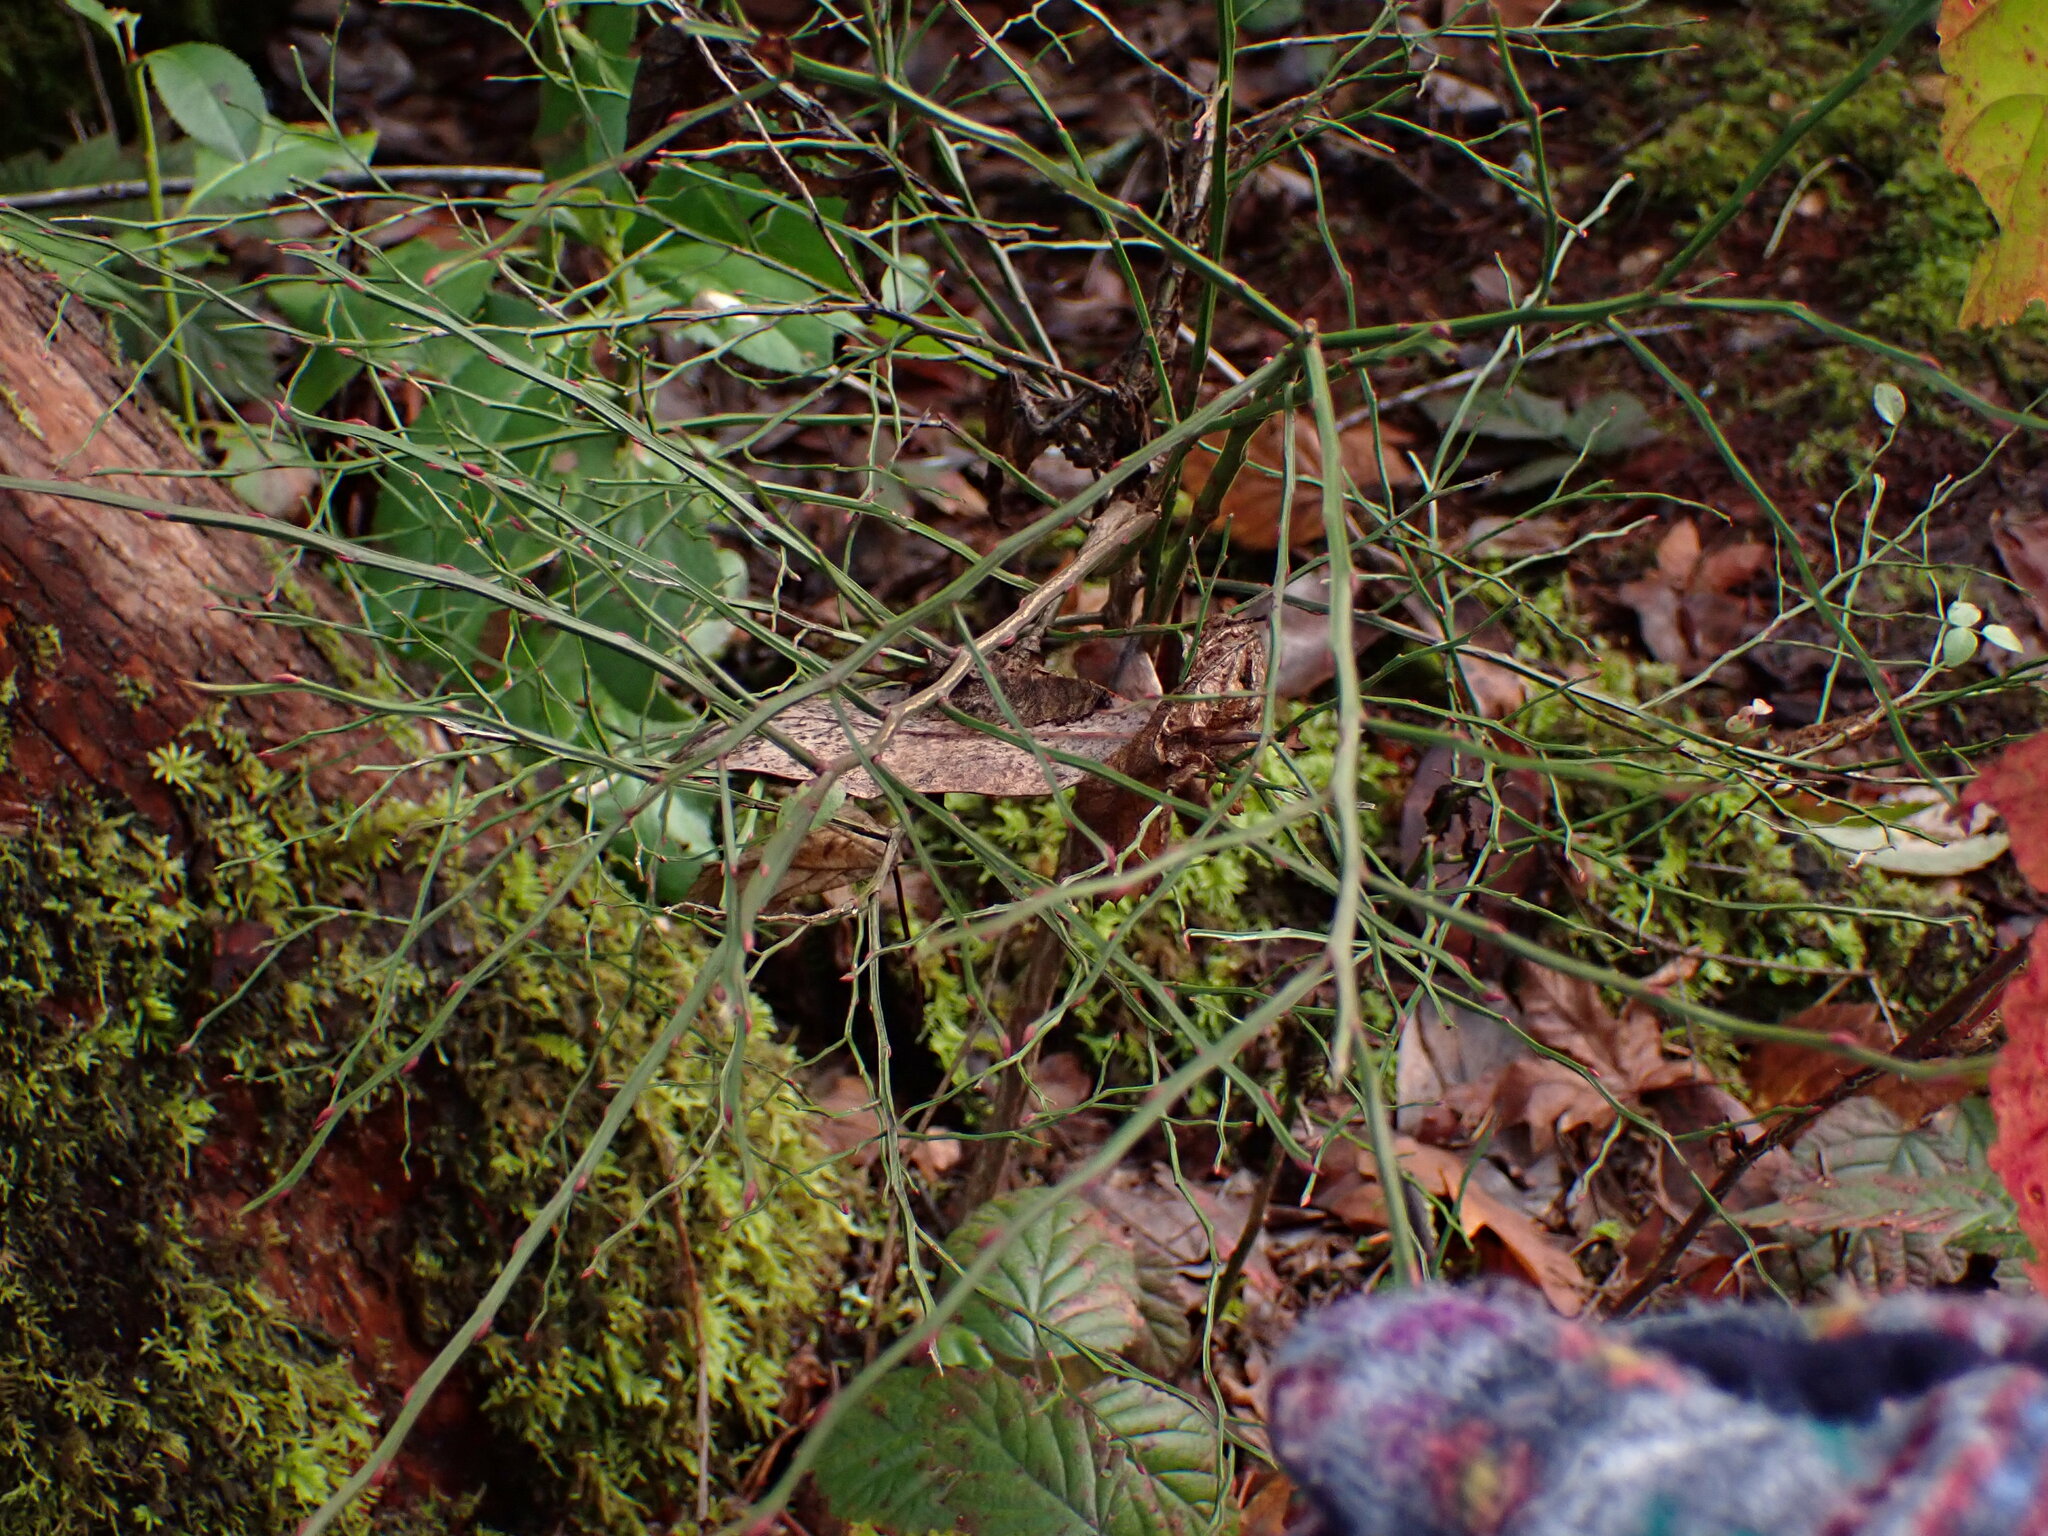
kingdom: Plantae
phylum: Tracheophyta
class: Magnoliopsida
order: Ericales
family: Ericaceae
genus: Vaccinium
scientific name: Vaccinium parvifolium
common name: Red-huckleberry
